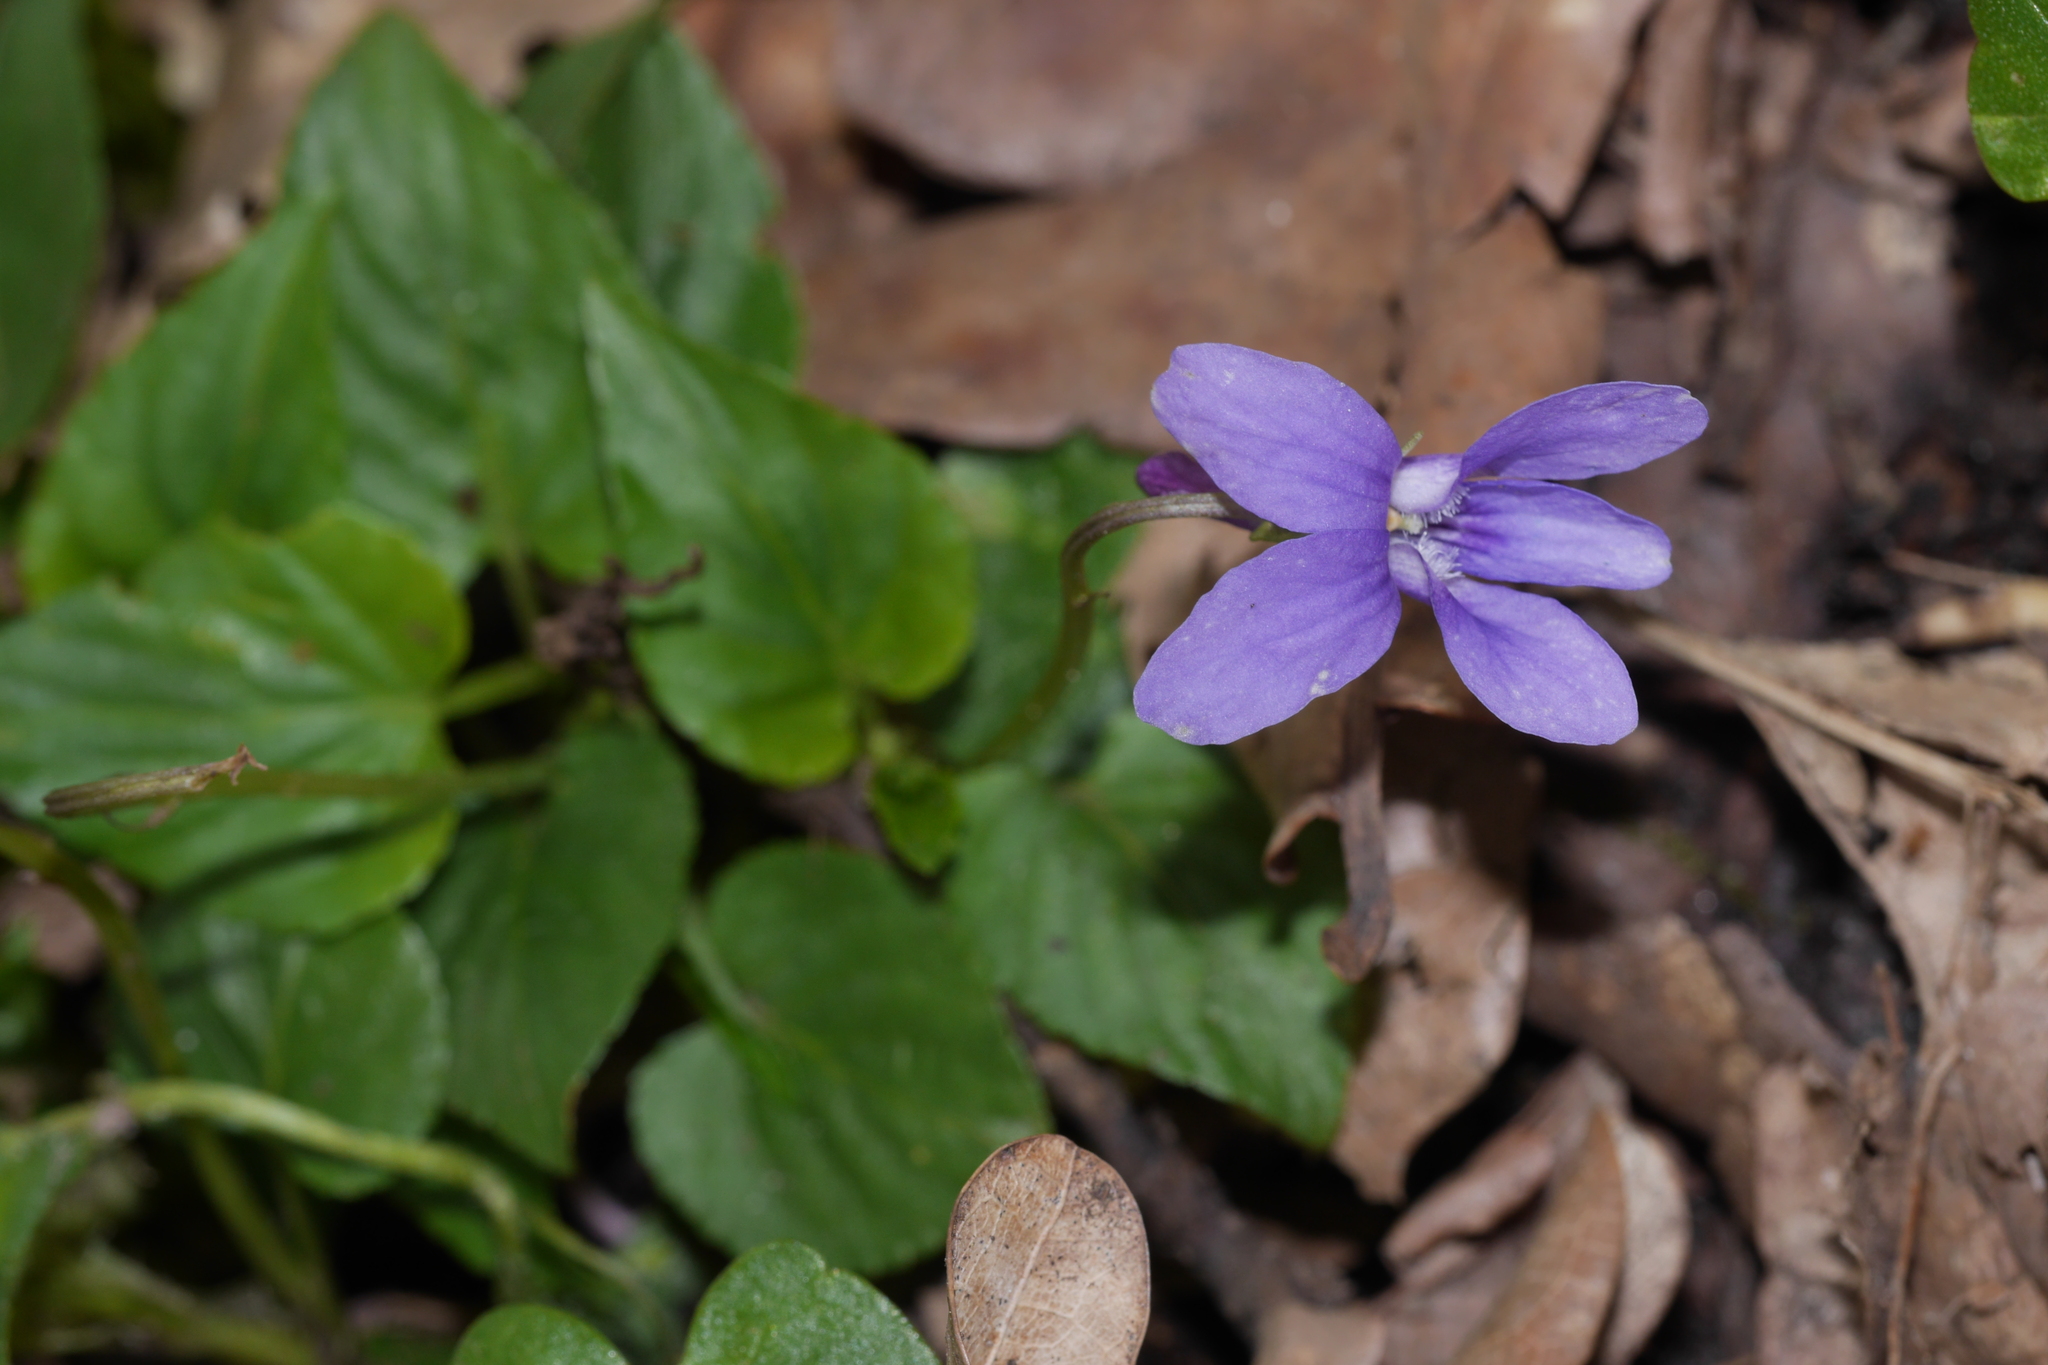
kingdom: Plantae
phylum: Tracheophyta
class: Magnoliopsida
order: Malpighiales
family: Violaceae
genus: Viola
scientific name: Viola reichenbachiana
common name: Early dog-violet
